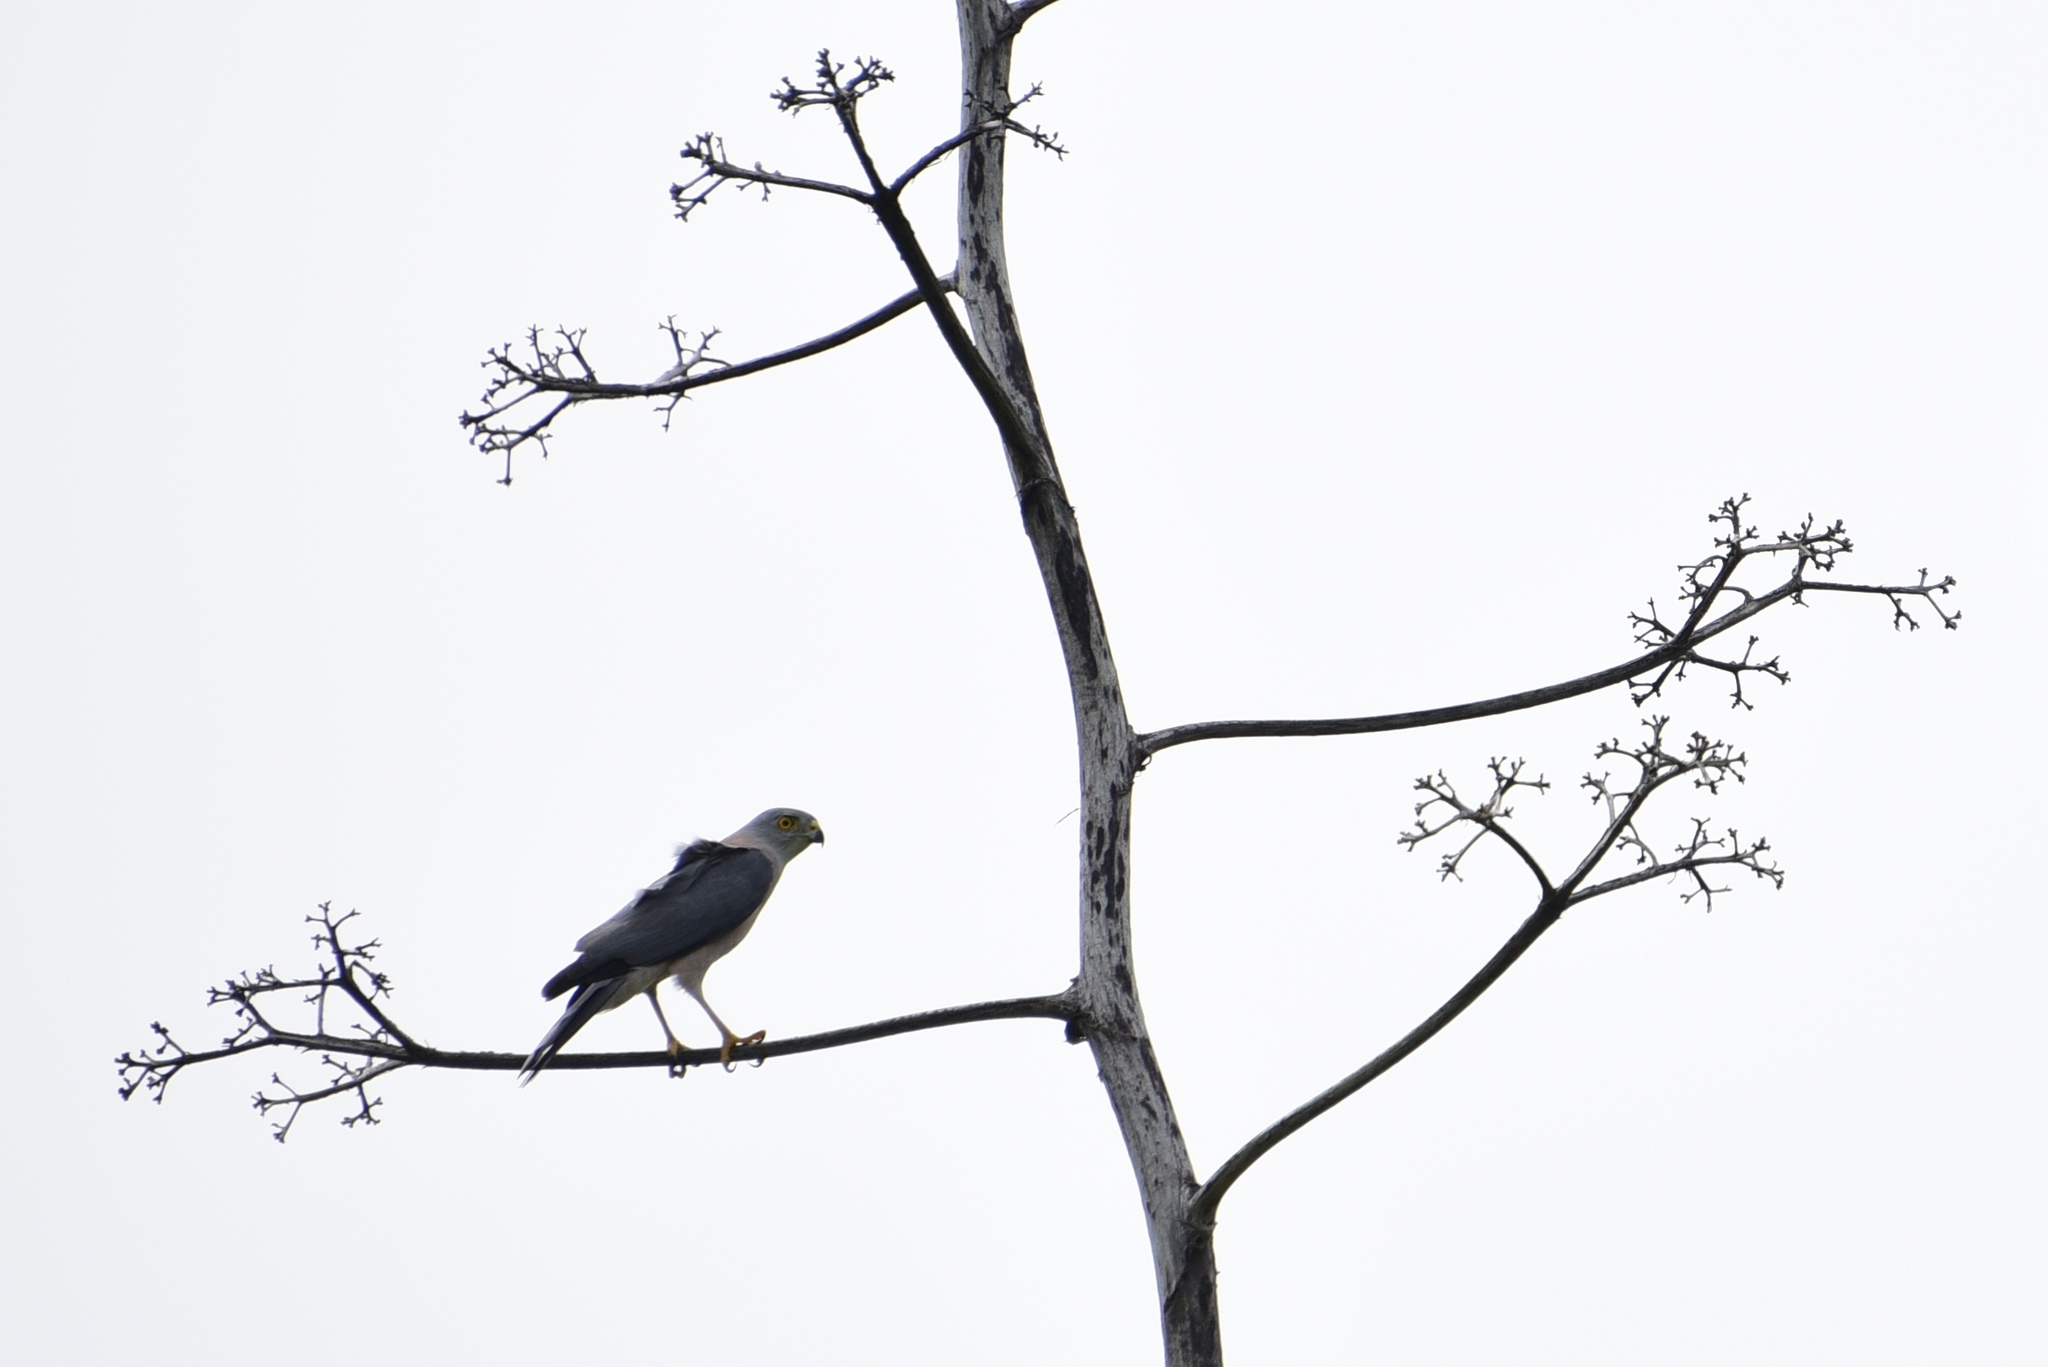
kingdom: Animalia
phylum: Chordata
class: Aves
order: Accipitriformes
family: Accipitridae
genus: Accipiter
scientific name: Accipiter rufitorques
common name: Fiji goshawk
